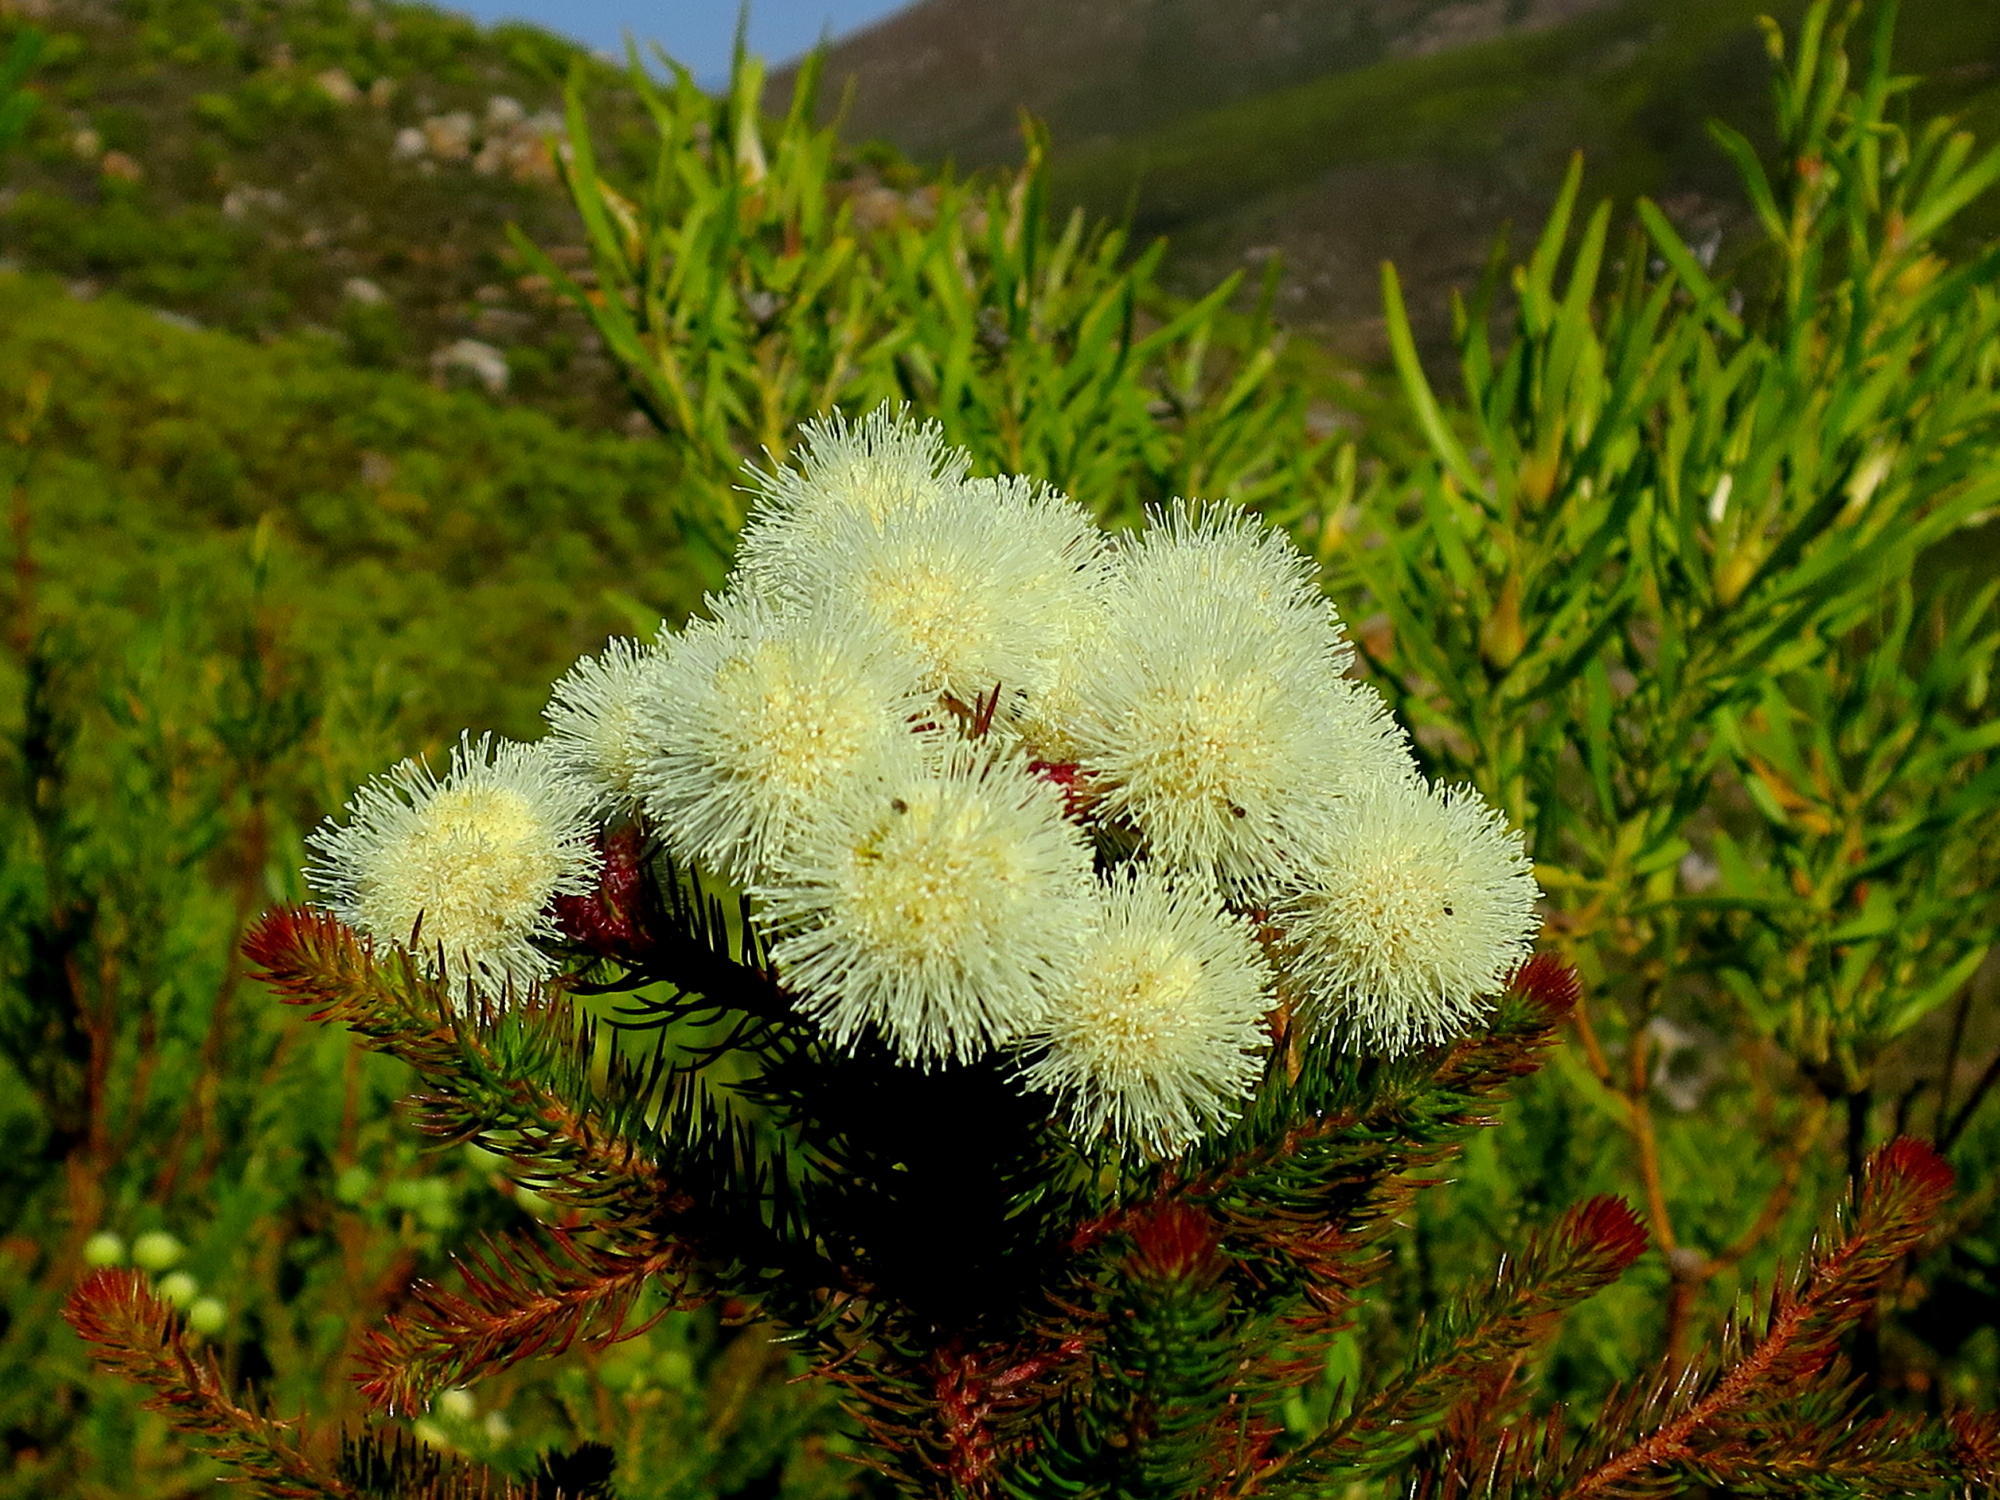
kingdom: Plantae
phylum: Tracheophyta
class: Magnoliopsida
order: Bruniales
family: Bruniaceae
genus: Berzelia
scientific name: Berzelia abrotanoides
